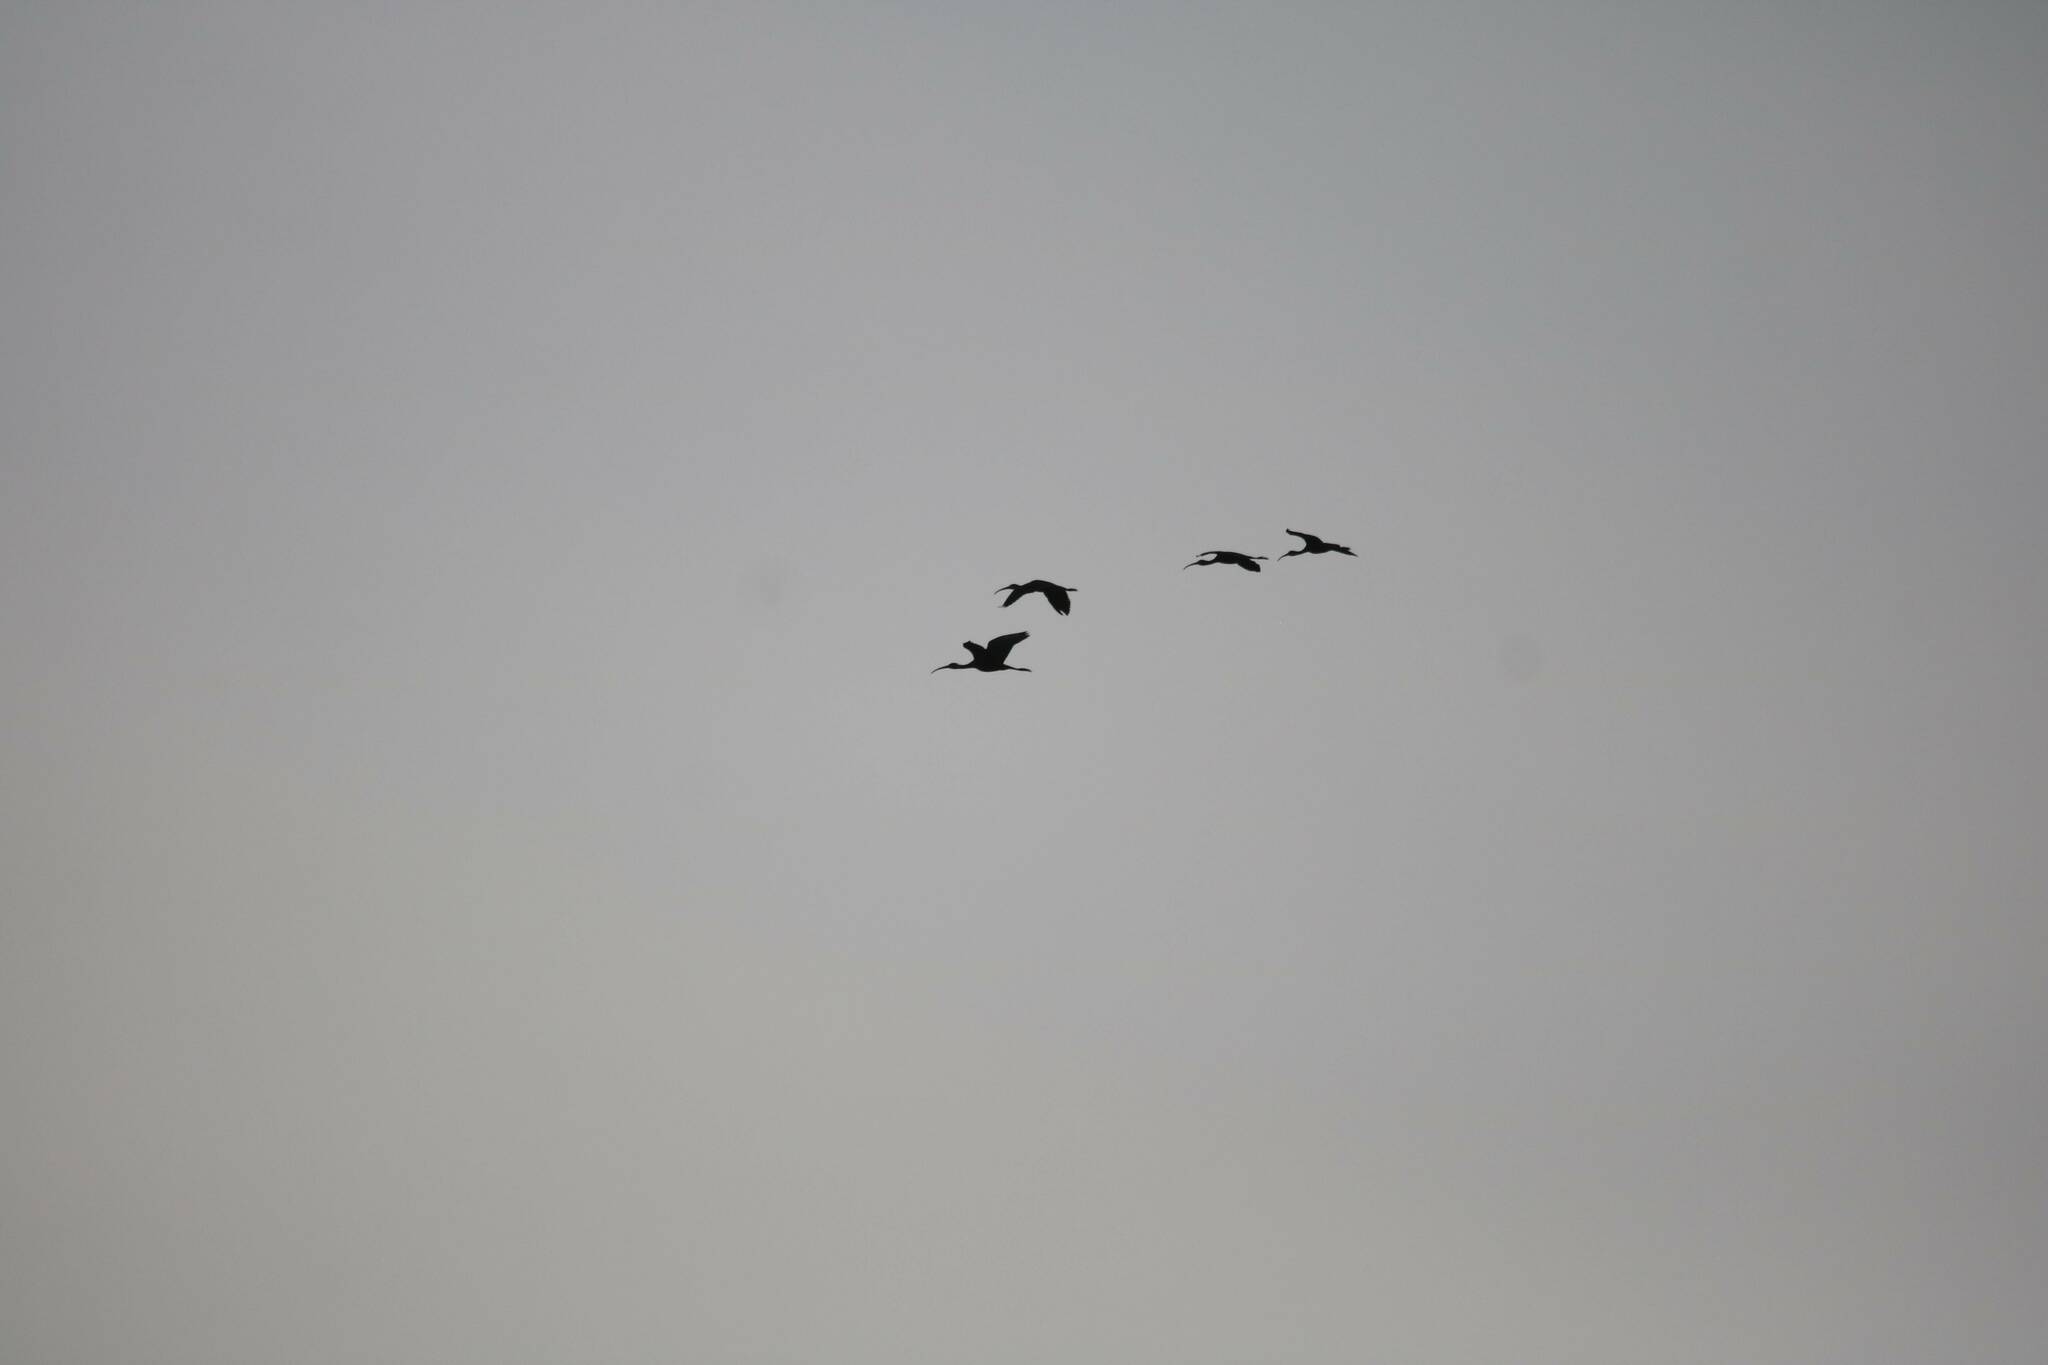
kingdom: Animalia
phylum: Chordata
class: Aves
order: Pelecaniformes
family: Threskiornithidae
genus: Plegadis
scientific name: Plegadis falcinellus
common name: Glossy ibis
